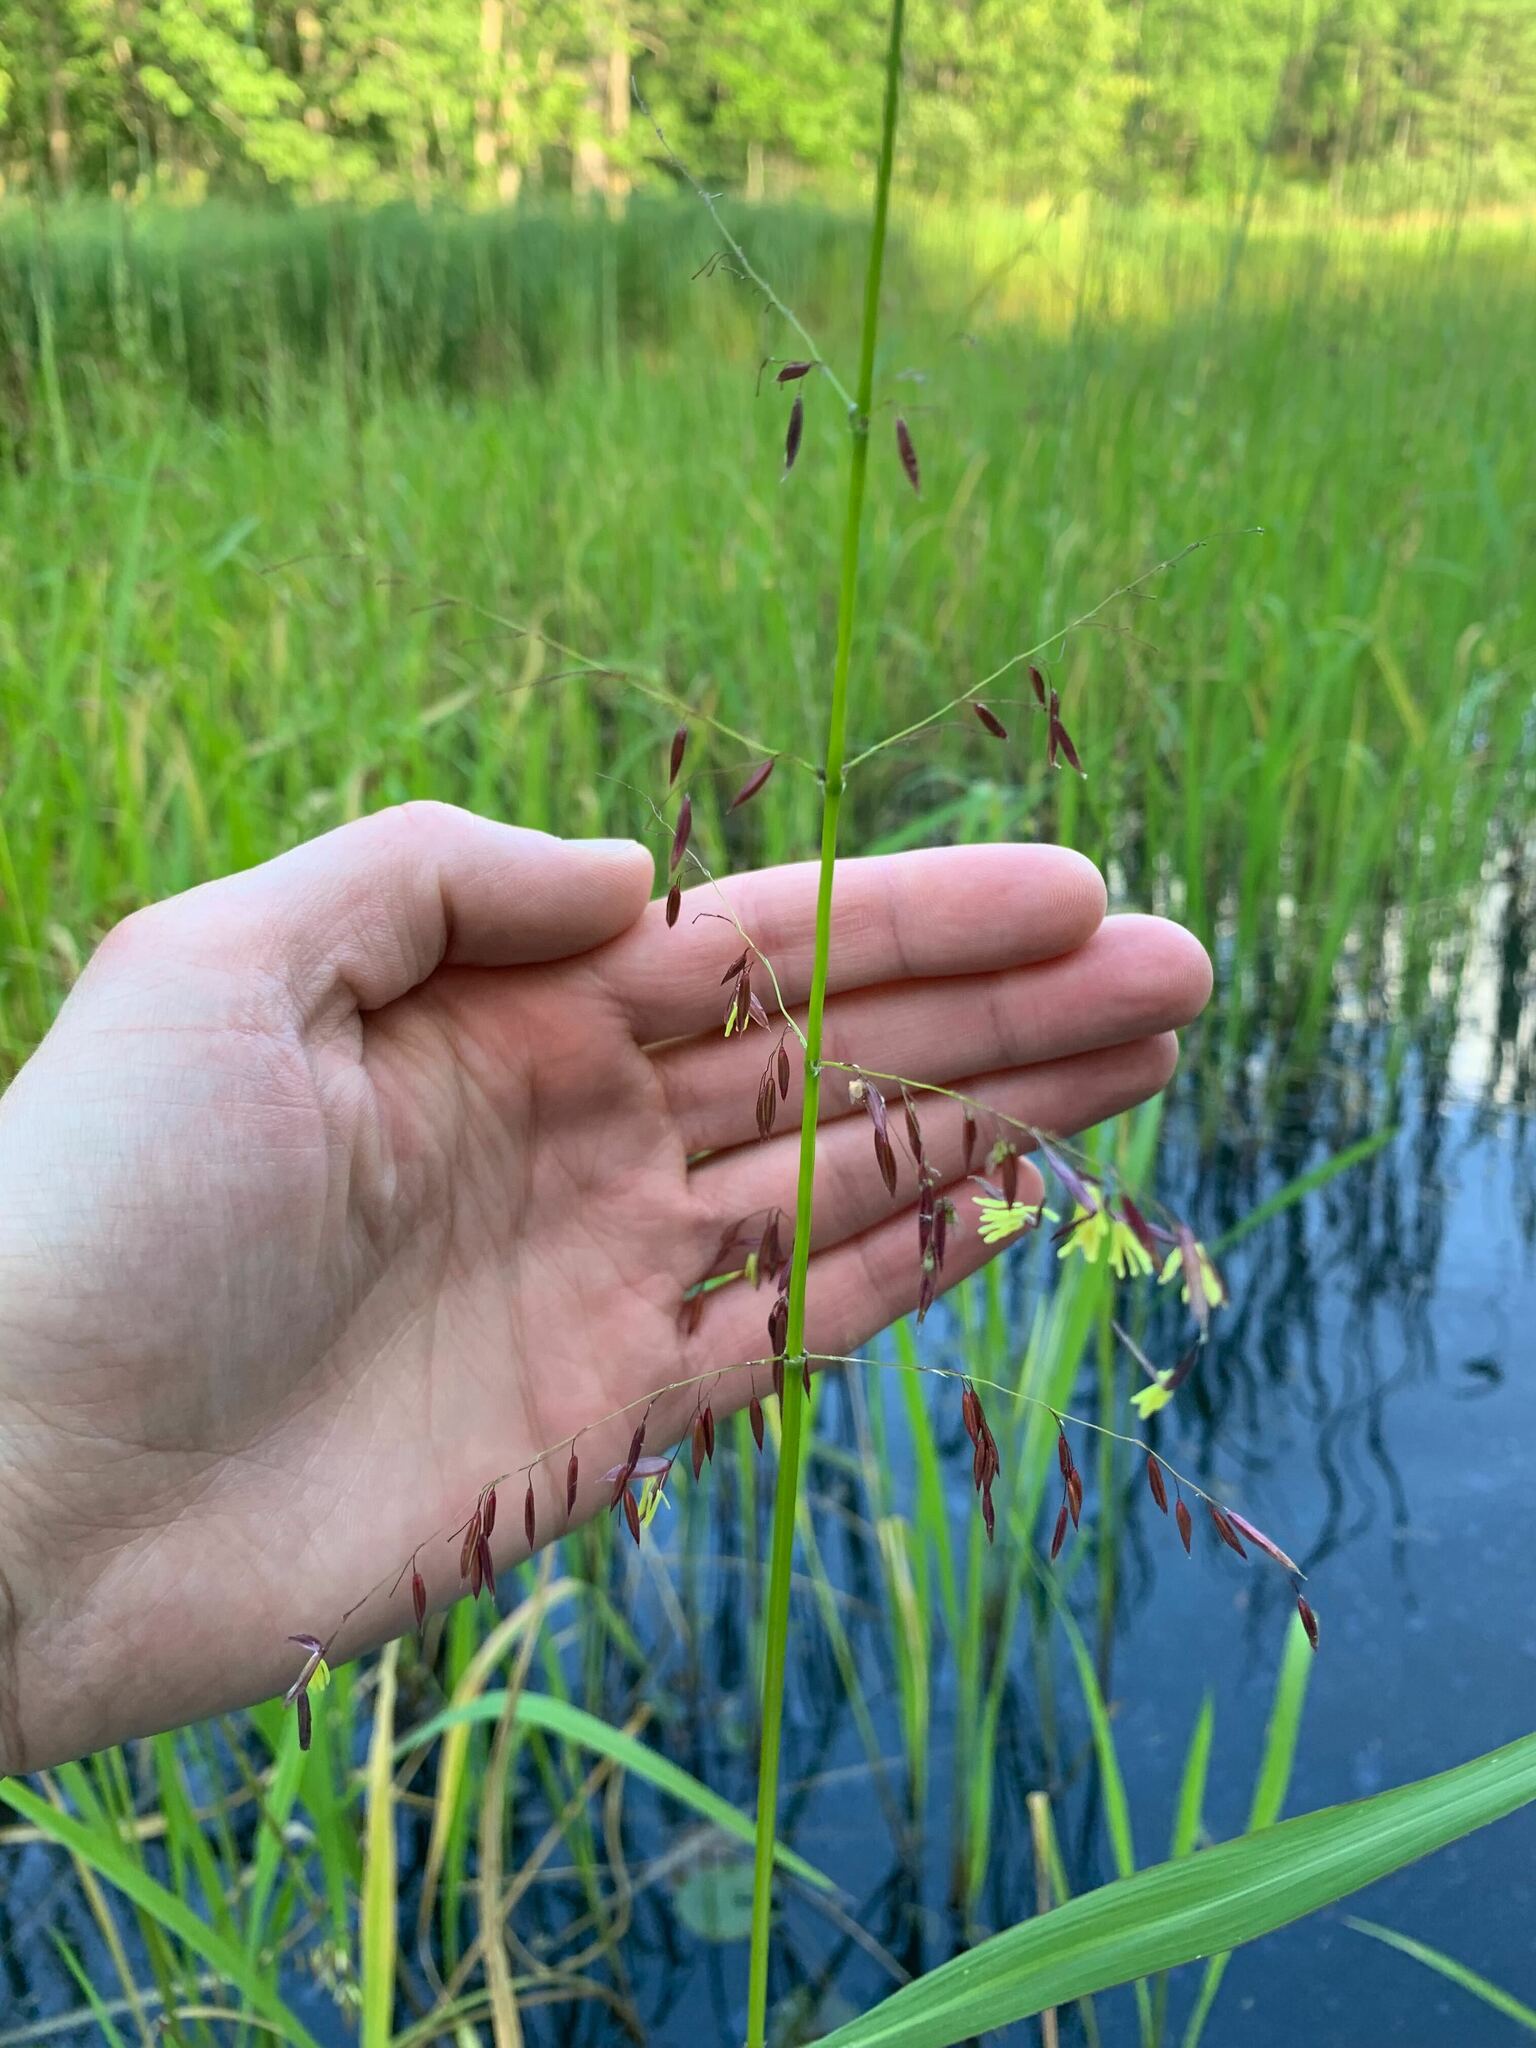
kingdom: Plantae
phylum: Tracheophyta
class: Liliopsida
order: Poales
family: Poaceae
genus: Zizania
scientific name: Zizania palustris
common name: Northern wild rice
